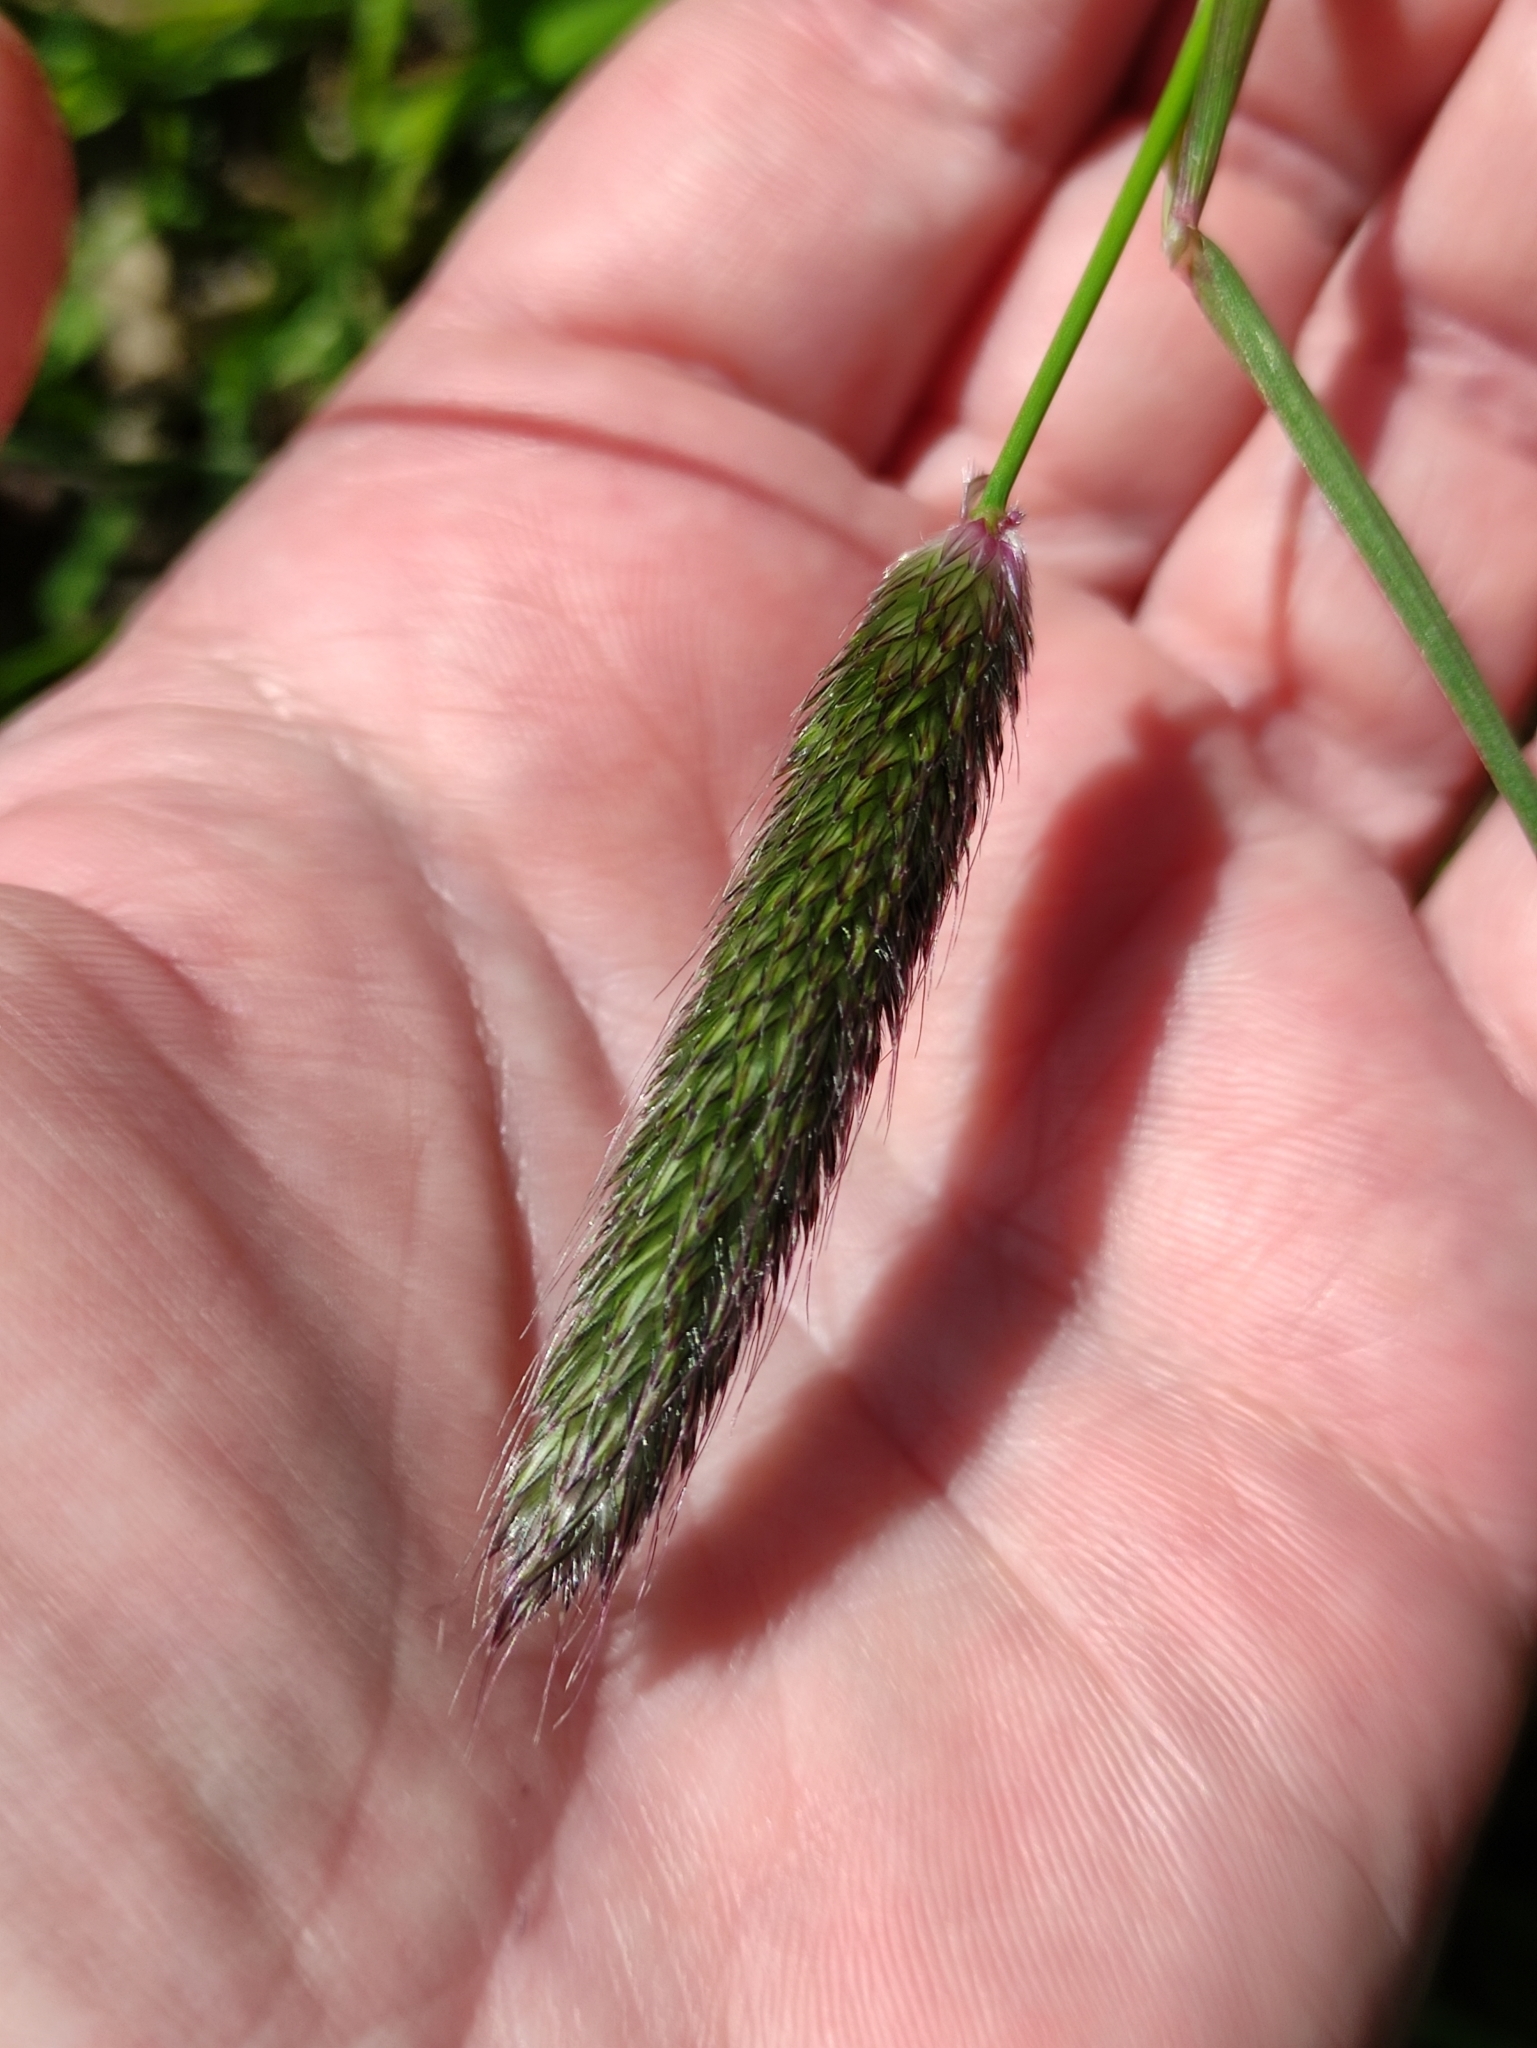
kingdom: Plantae
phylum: Tracheophyta
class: Liliopsida
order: Poales
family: Poaceae
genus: Alopecurus
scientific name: Alopecurus pratensis
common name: Meadow foxtail
